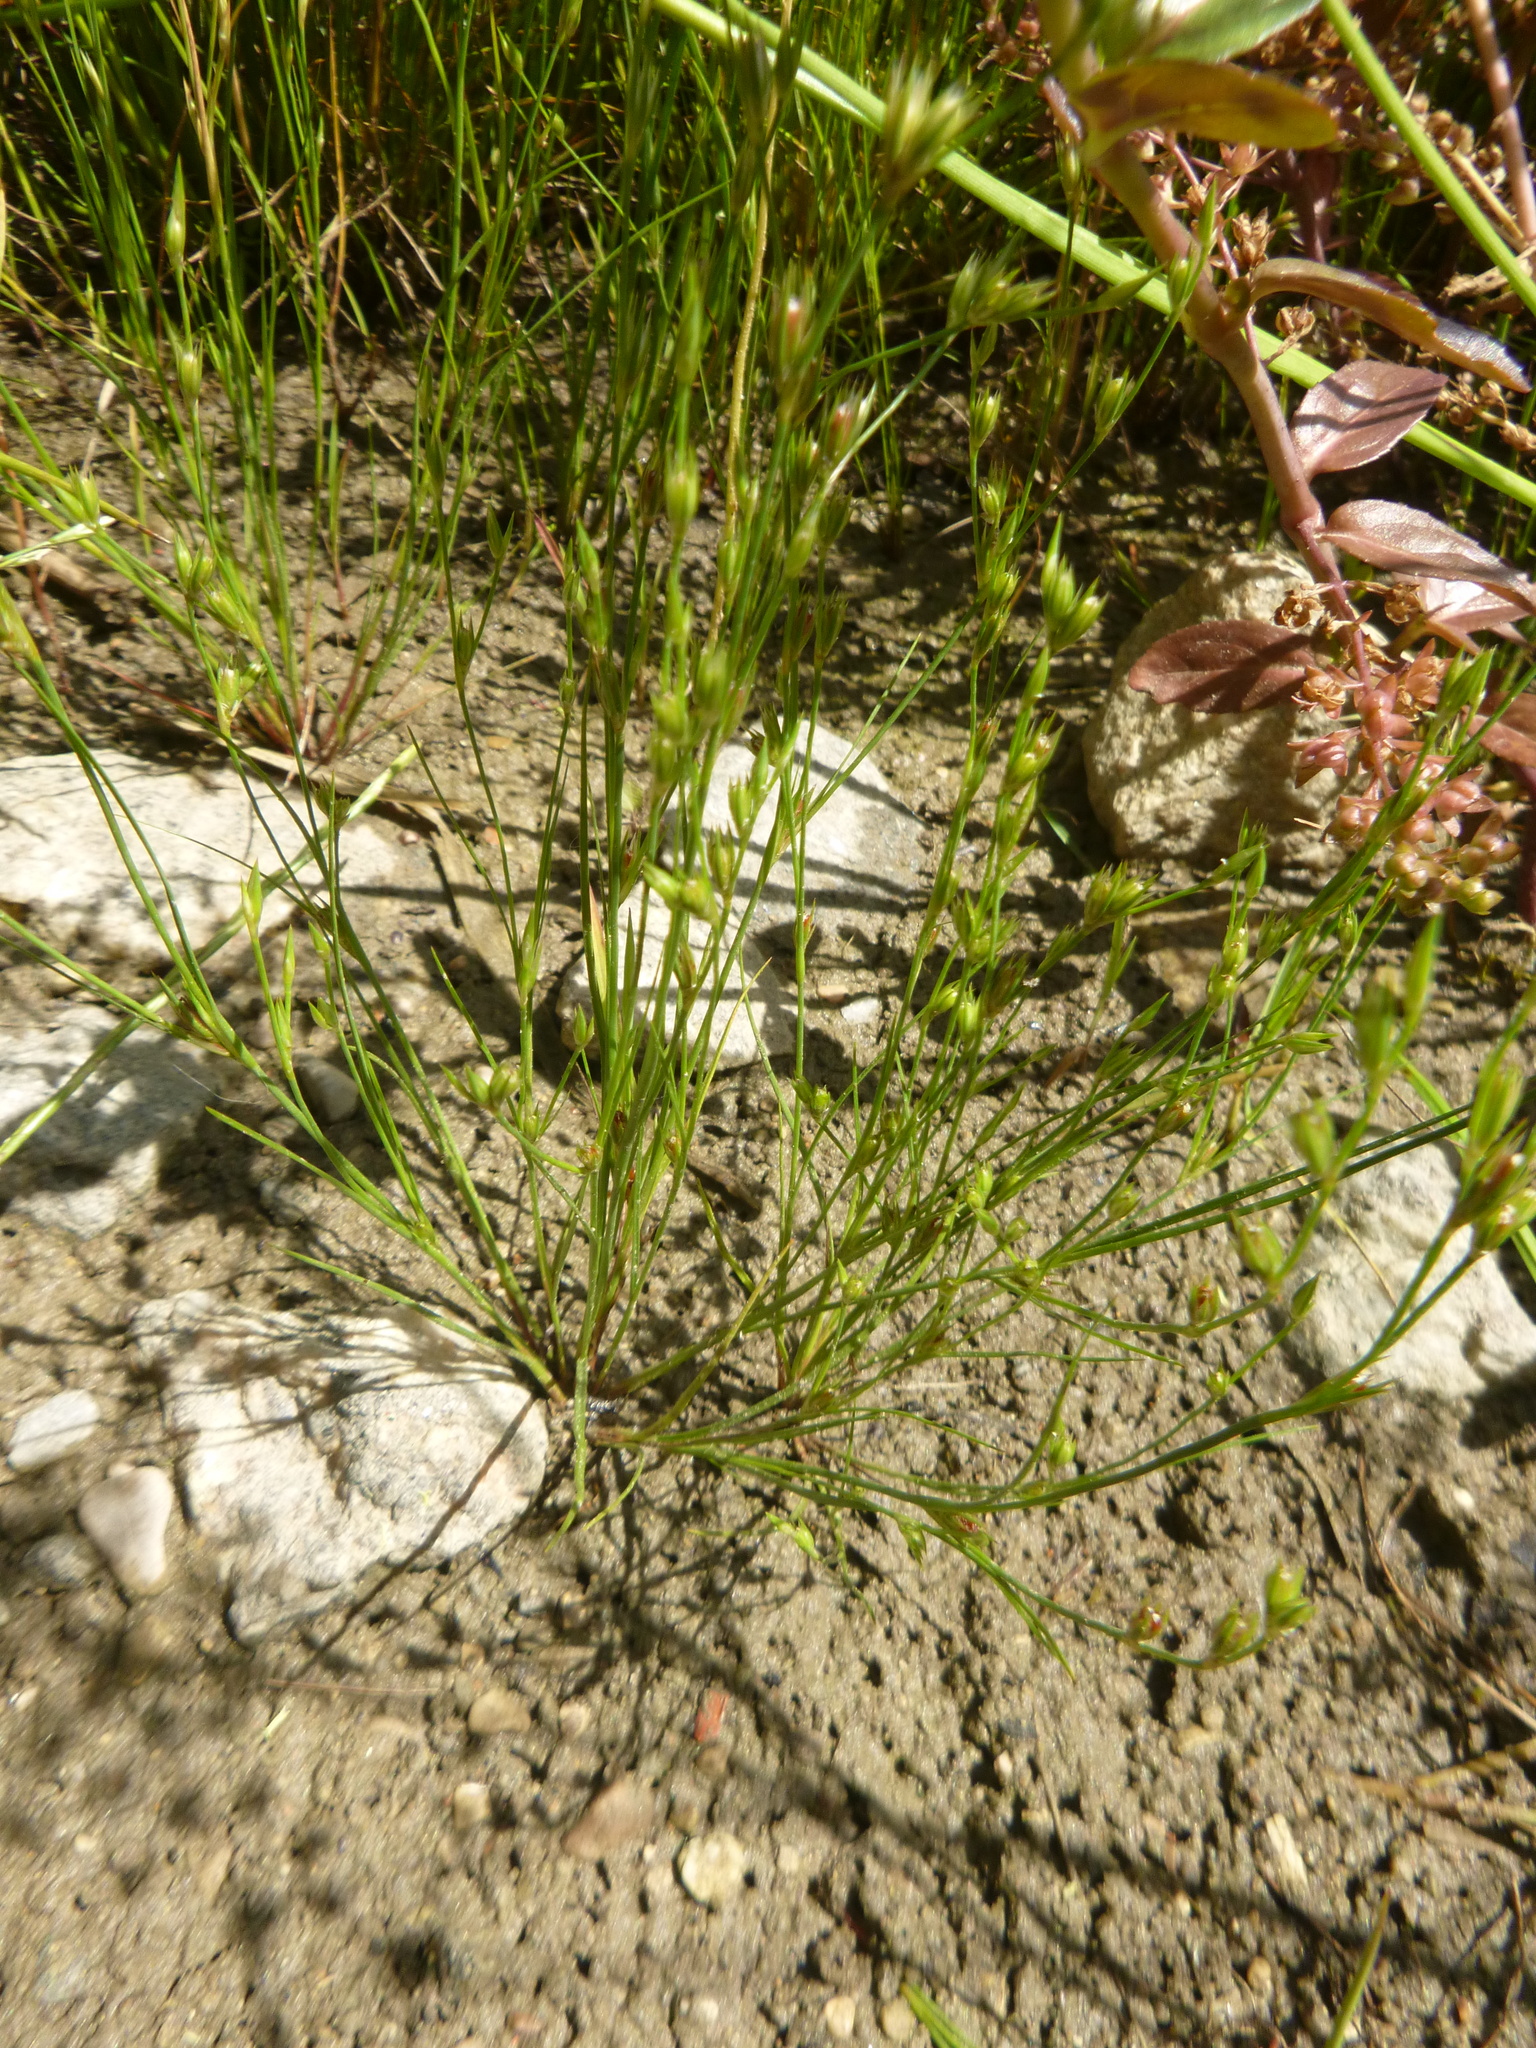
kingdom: Plantae
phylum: Tracheophyta
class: Liliopsida
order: Poales
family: Juncaceae
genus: Juncus
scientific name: Juncus bufonius
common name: Toad rush
